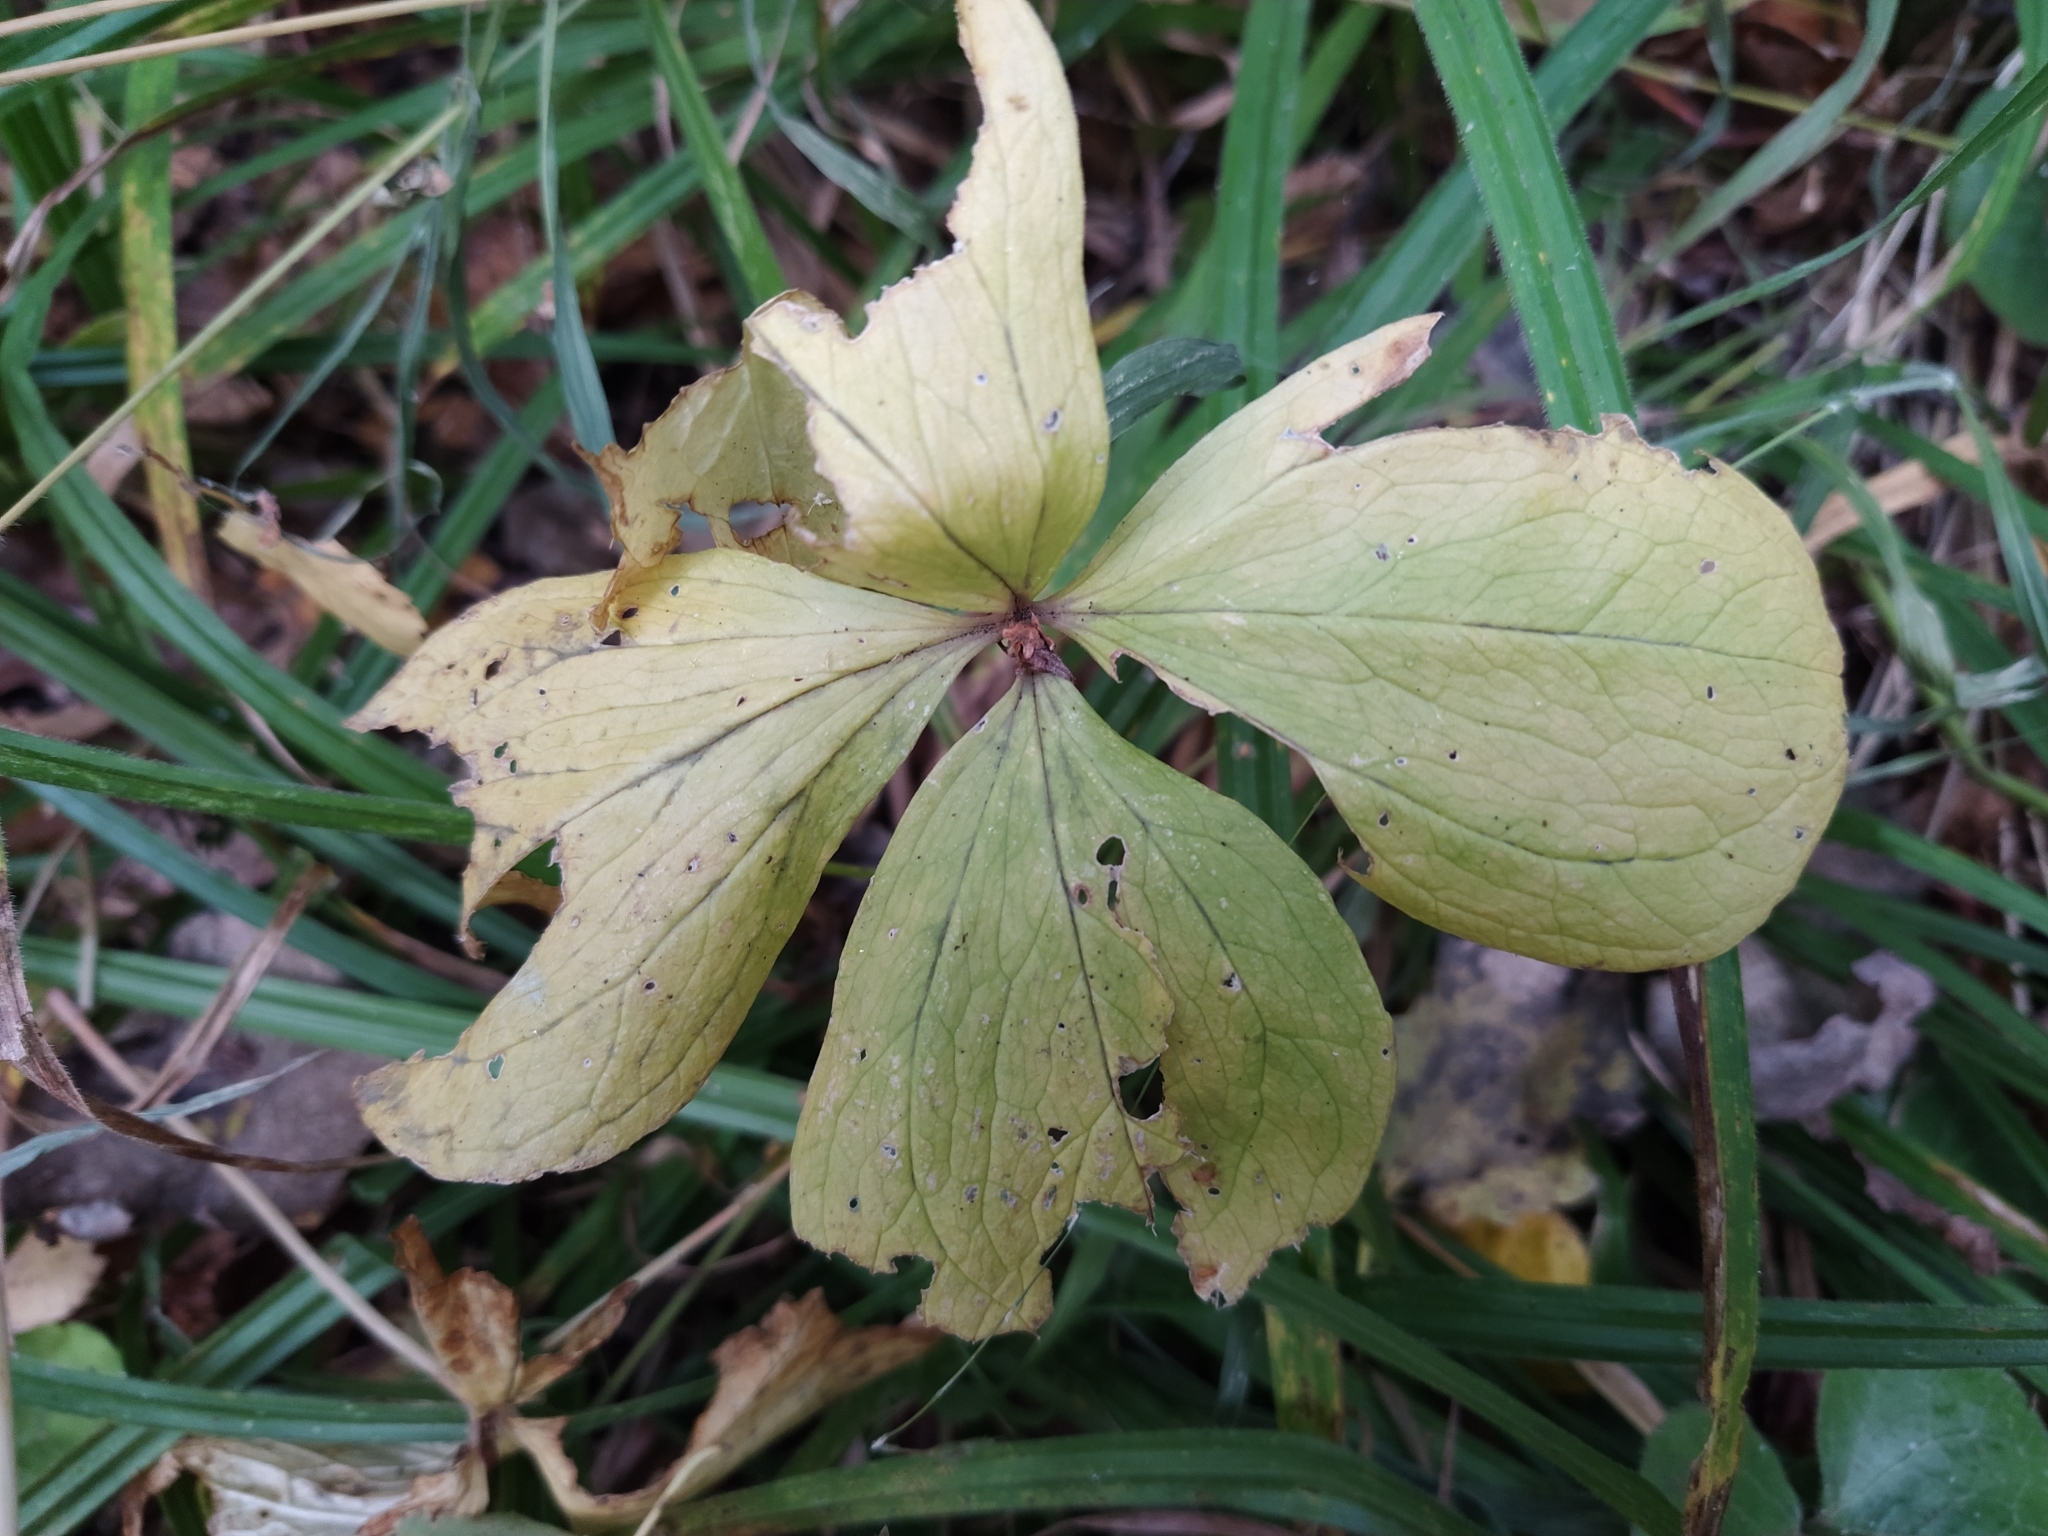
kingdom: Plantae
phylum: Tracheophyta
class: Liliopsida
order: Liliales
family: Melanthiaceae
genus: Paris
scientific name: Paris quadrifolia
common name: Herb-paris
